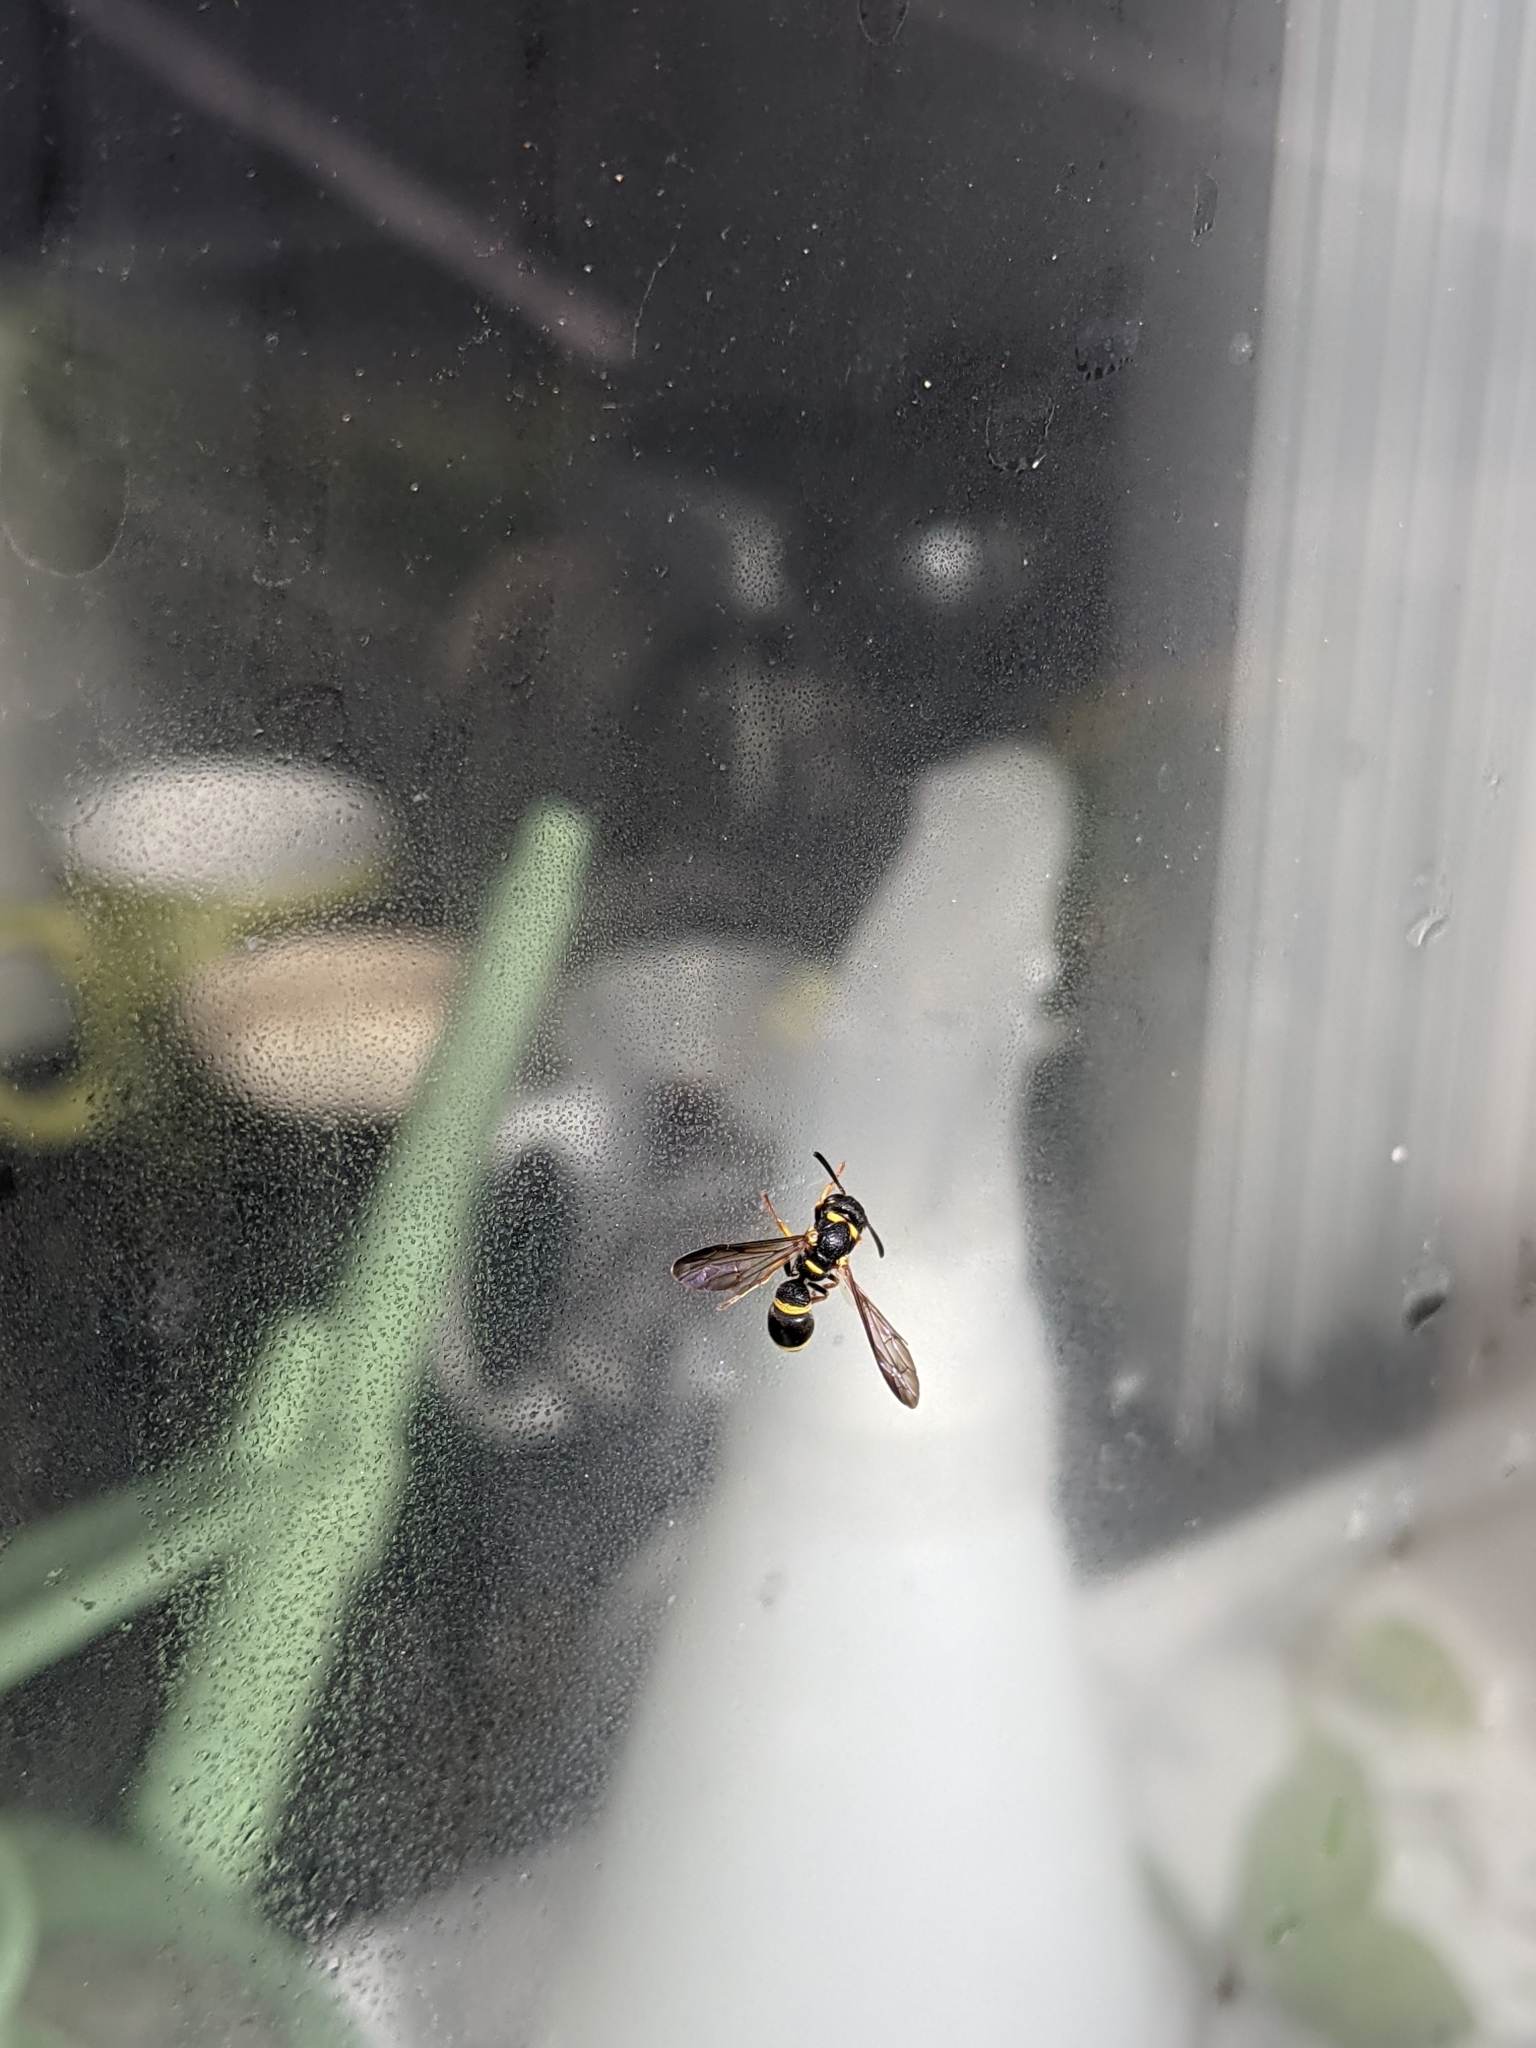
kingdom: Animalia
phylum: Arthropoda
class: Insecta
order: Hymenoptera
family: Eumenidae
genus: Parancistrocerus
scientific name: Parancistrocerus perennis
